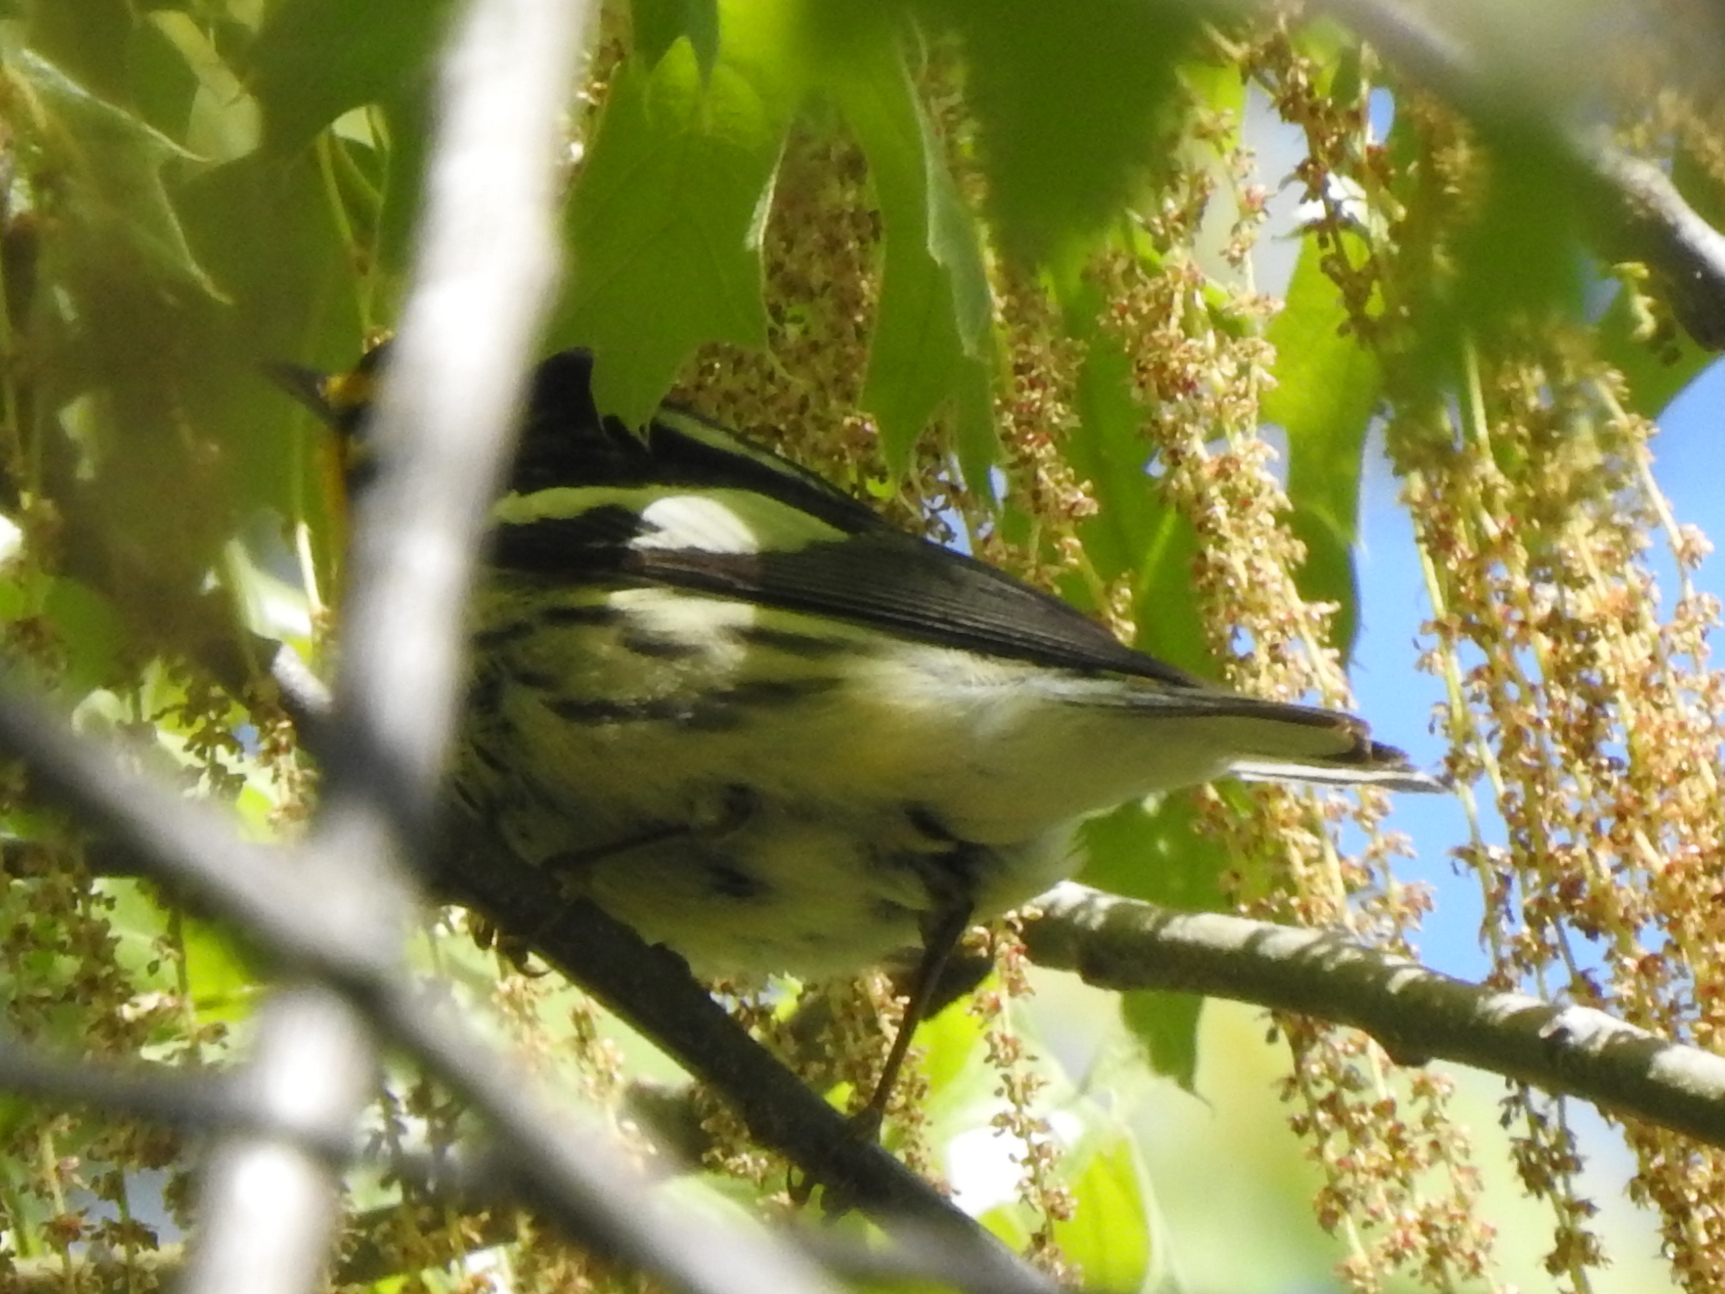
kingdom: Animalia
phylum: Chordata
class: Aves
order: Passeriformes
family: Parulidae
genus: Setophaga
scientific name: Setophaga fusca
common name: Blackburnian warbler
